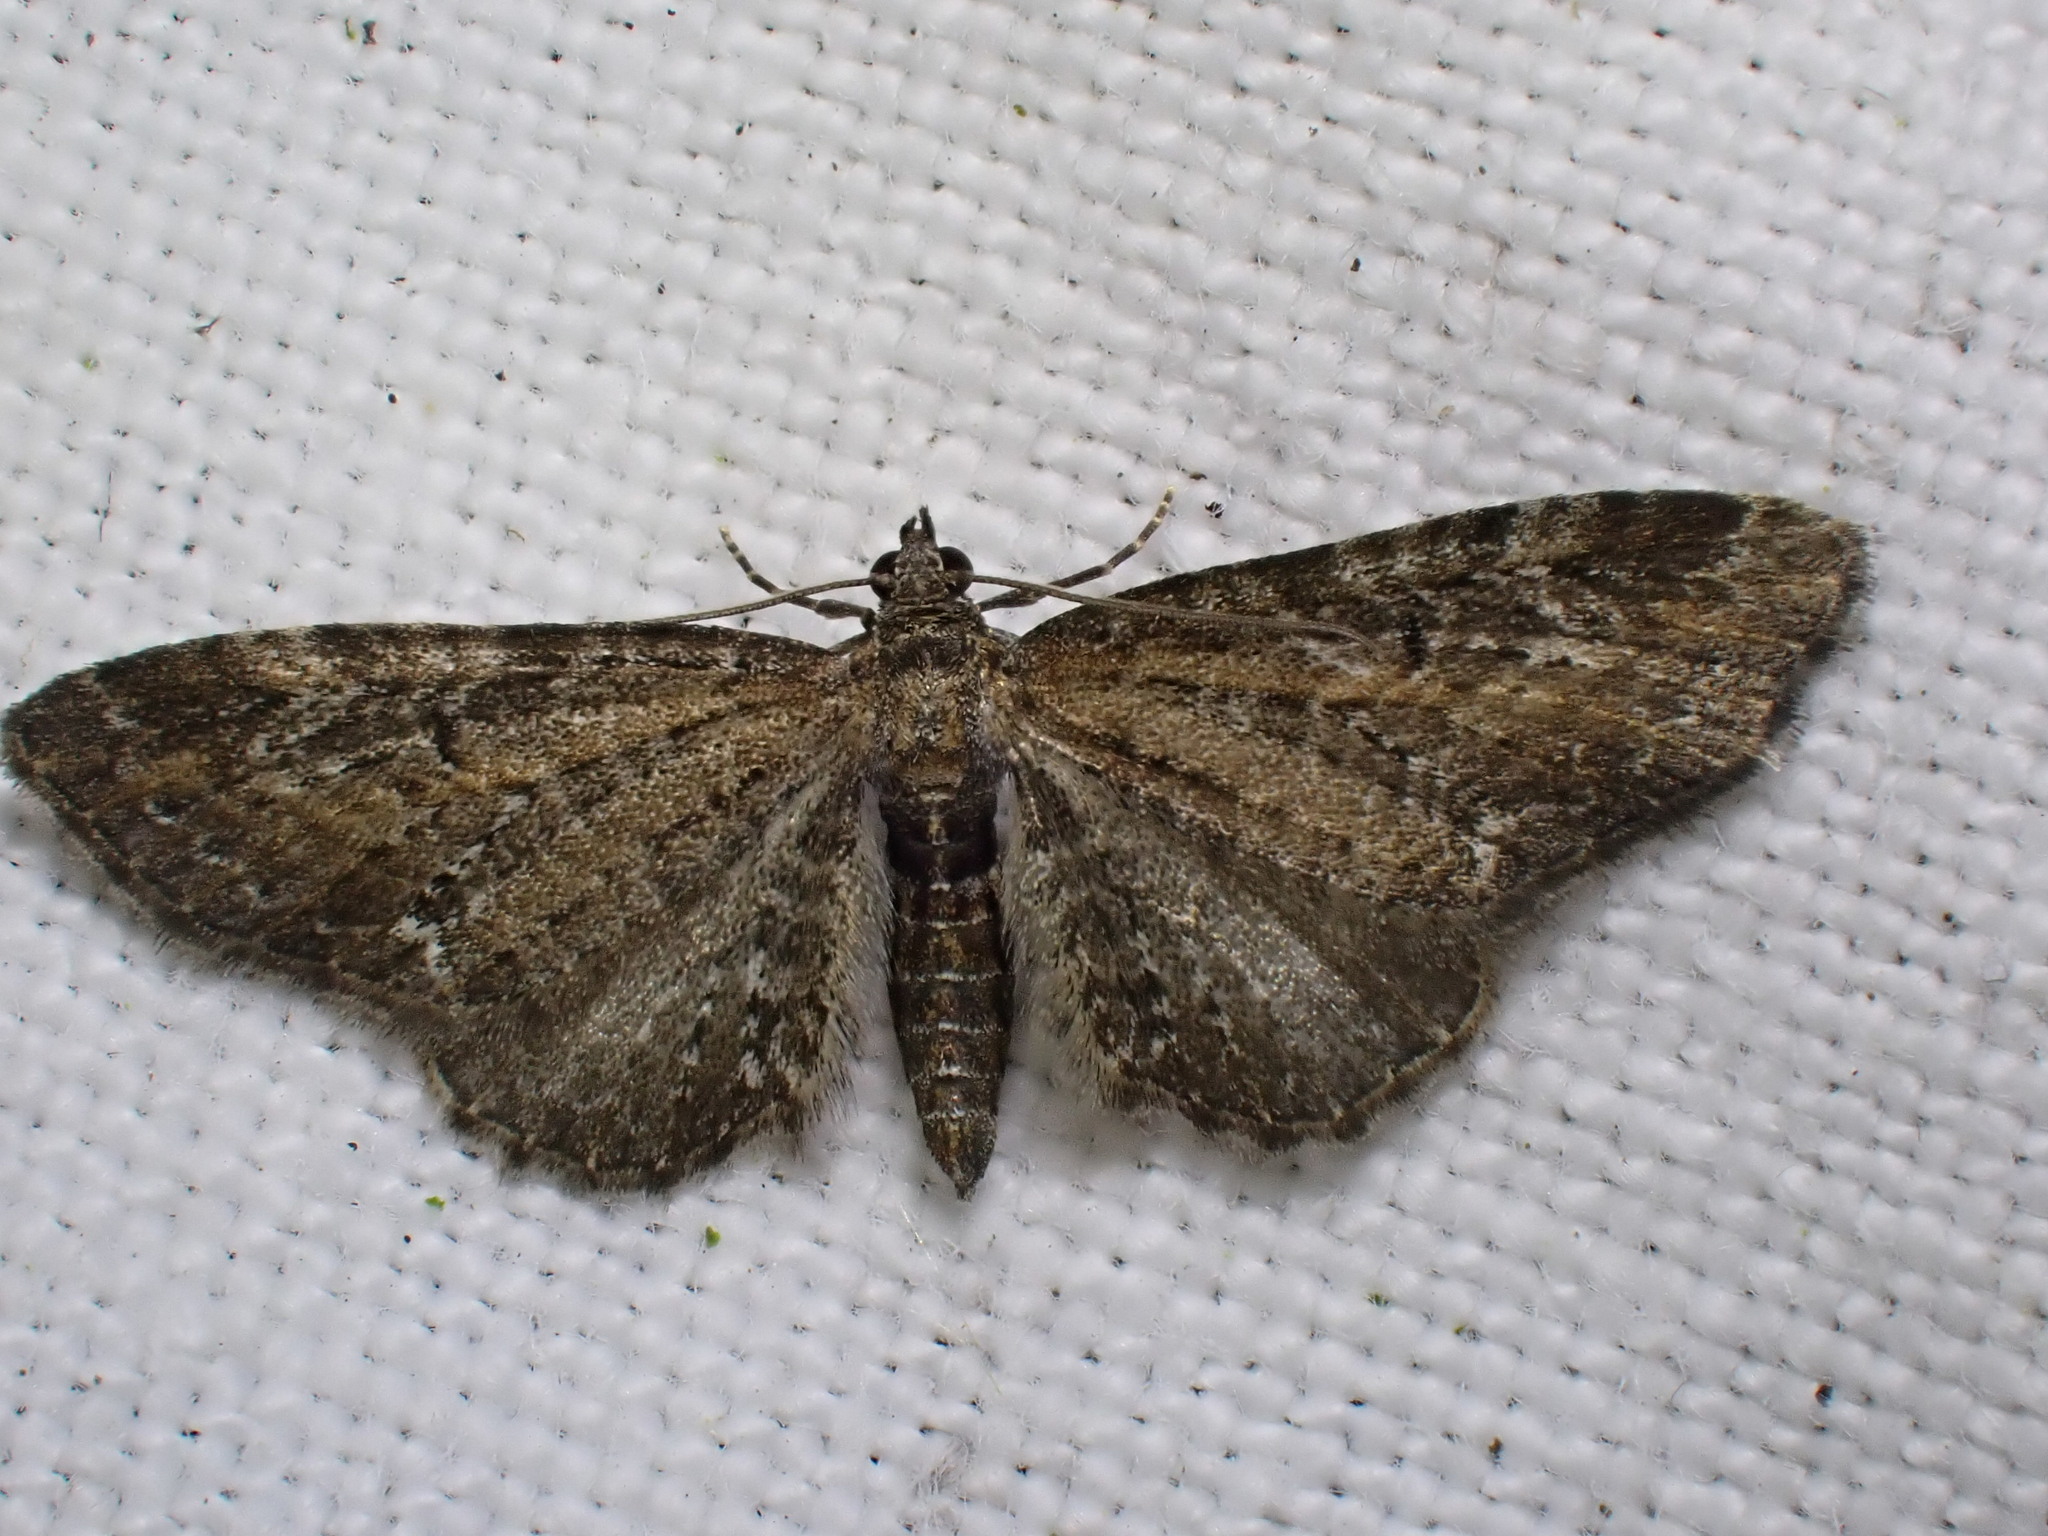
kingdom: Animalia
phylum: Arthropoda
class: Insecta
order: Lepidoptera
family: Geometridae
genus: Eupithecia
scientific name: Eupithecia vulgata
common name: Common pug
